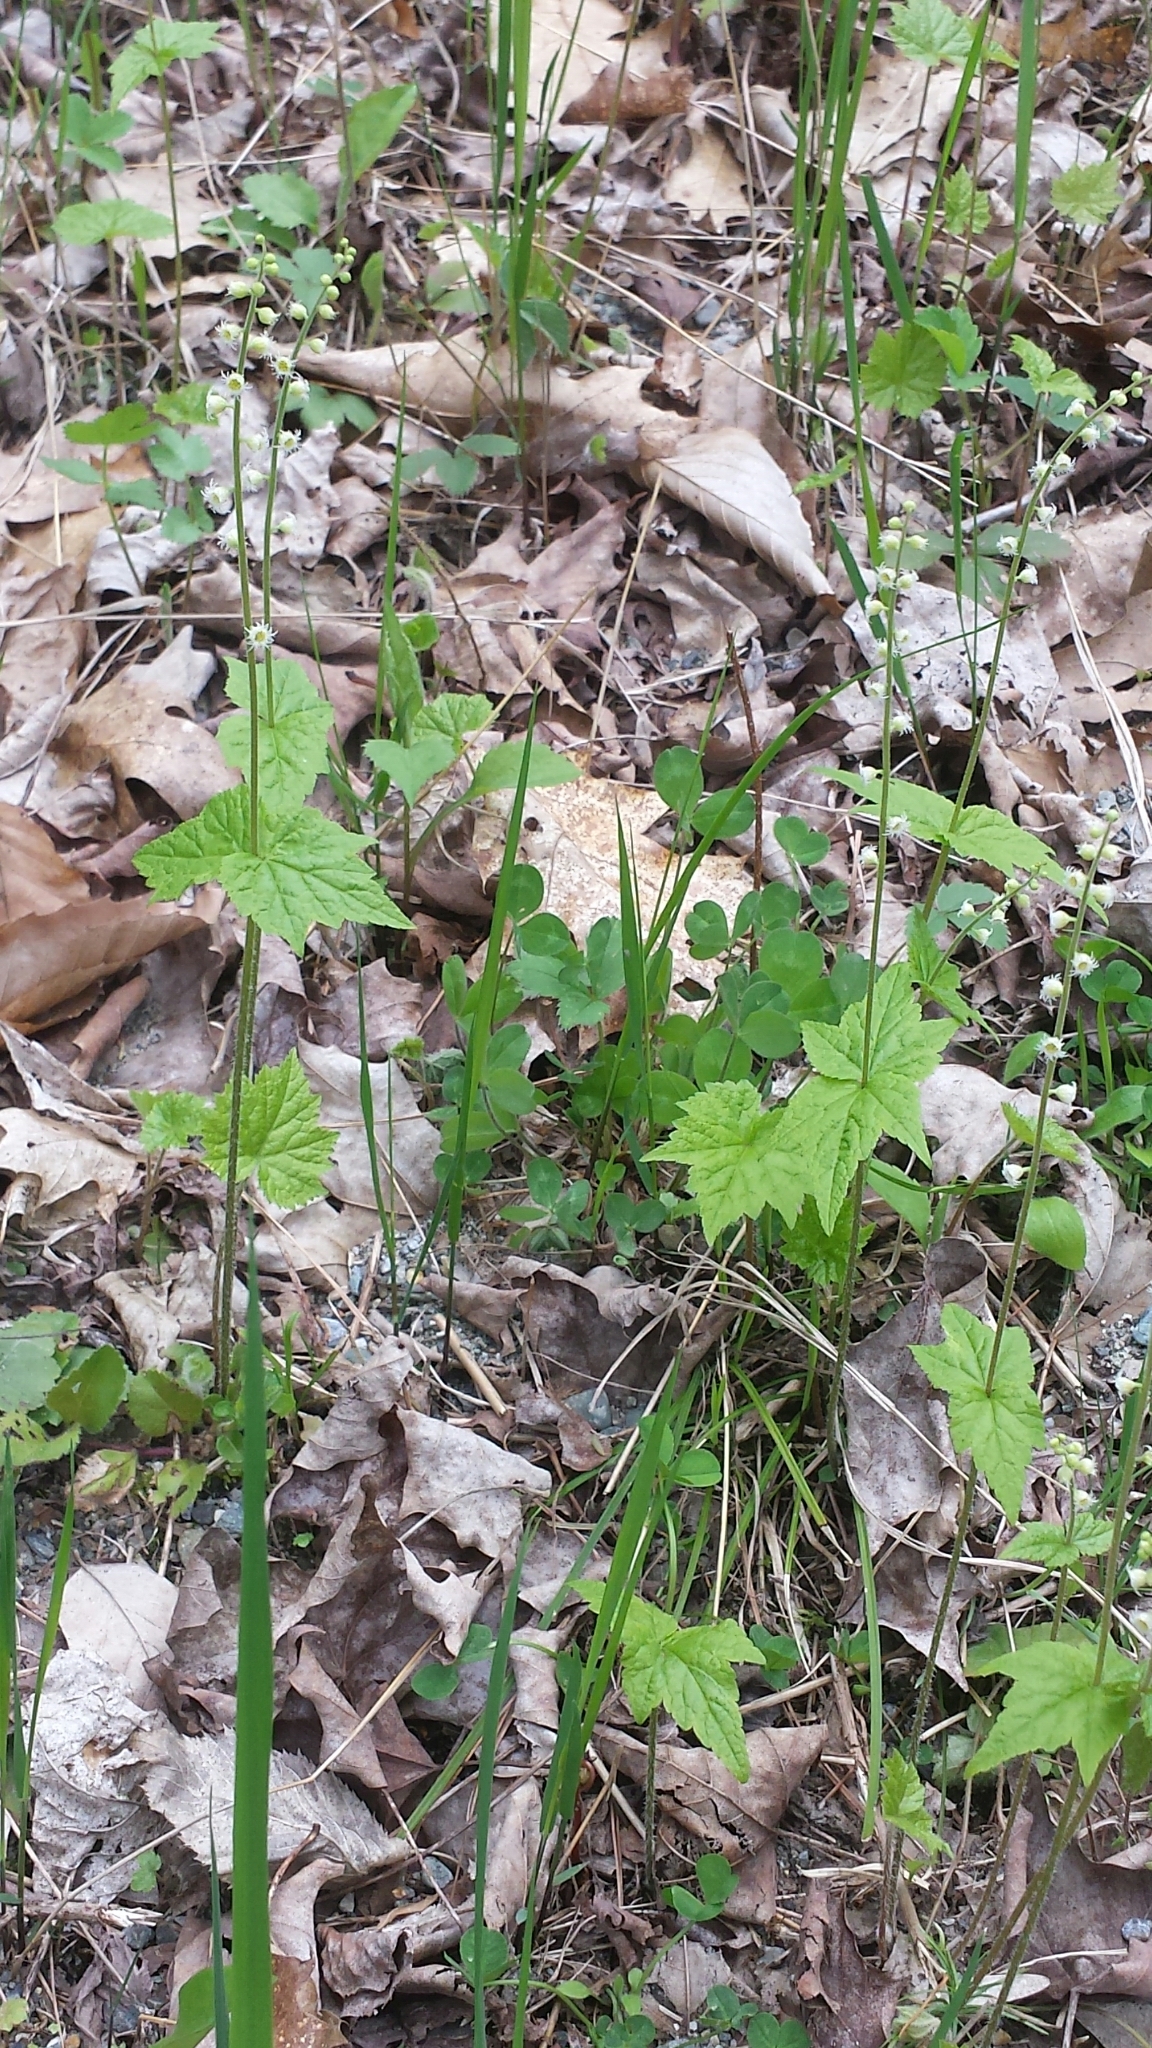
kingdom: Plantae
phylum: Tracheophyta
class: Magnoliopsida
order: Saxifragales
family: Saxifragaceae
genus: Mitella
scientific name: Mitella diphylla
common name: Coolwort
